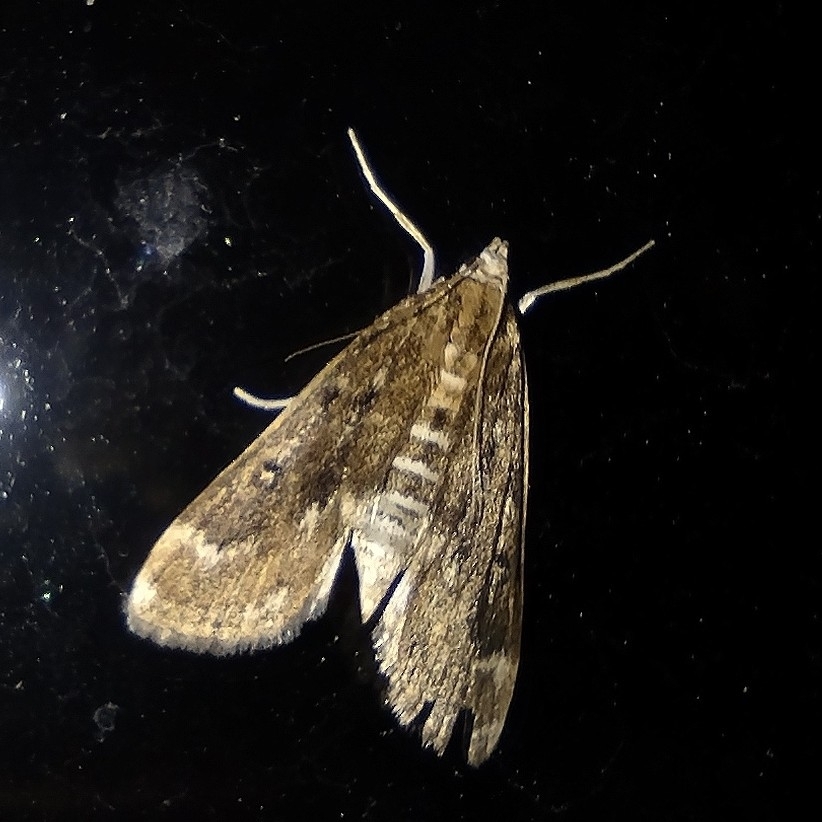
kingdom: Animalia
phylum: Arthropoda
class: Insecta
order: Lepidoptera
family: Crambidae
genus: Parapoynx
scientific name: Parapoynx stratiotata
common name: Ringed china-mark
